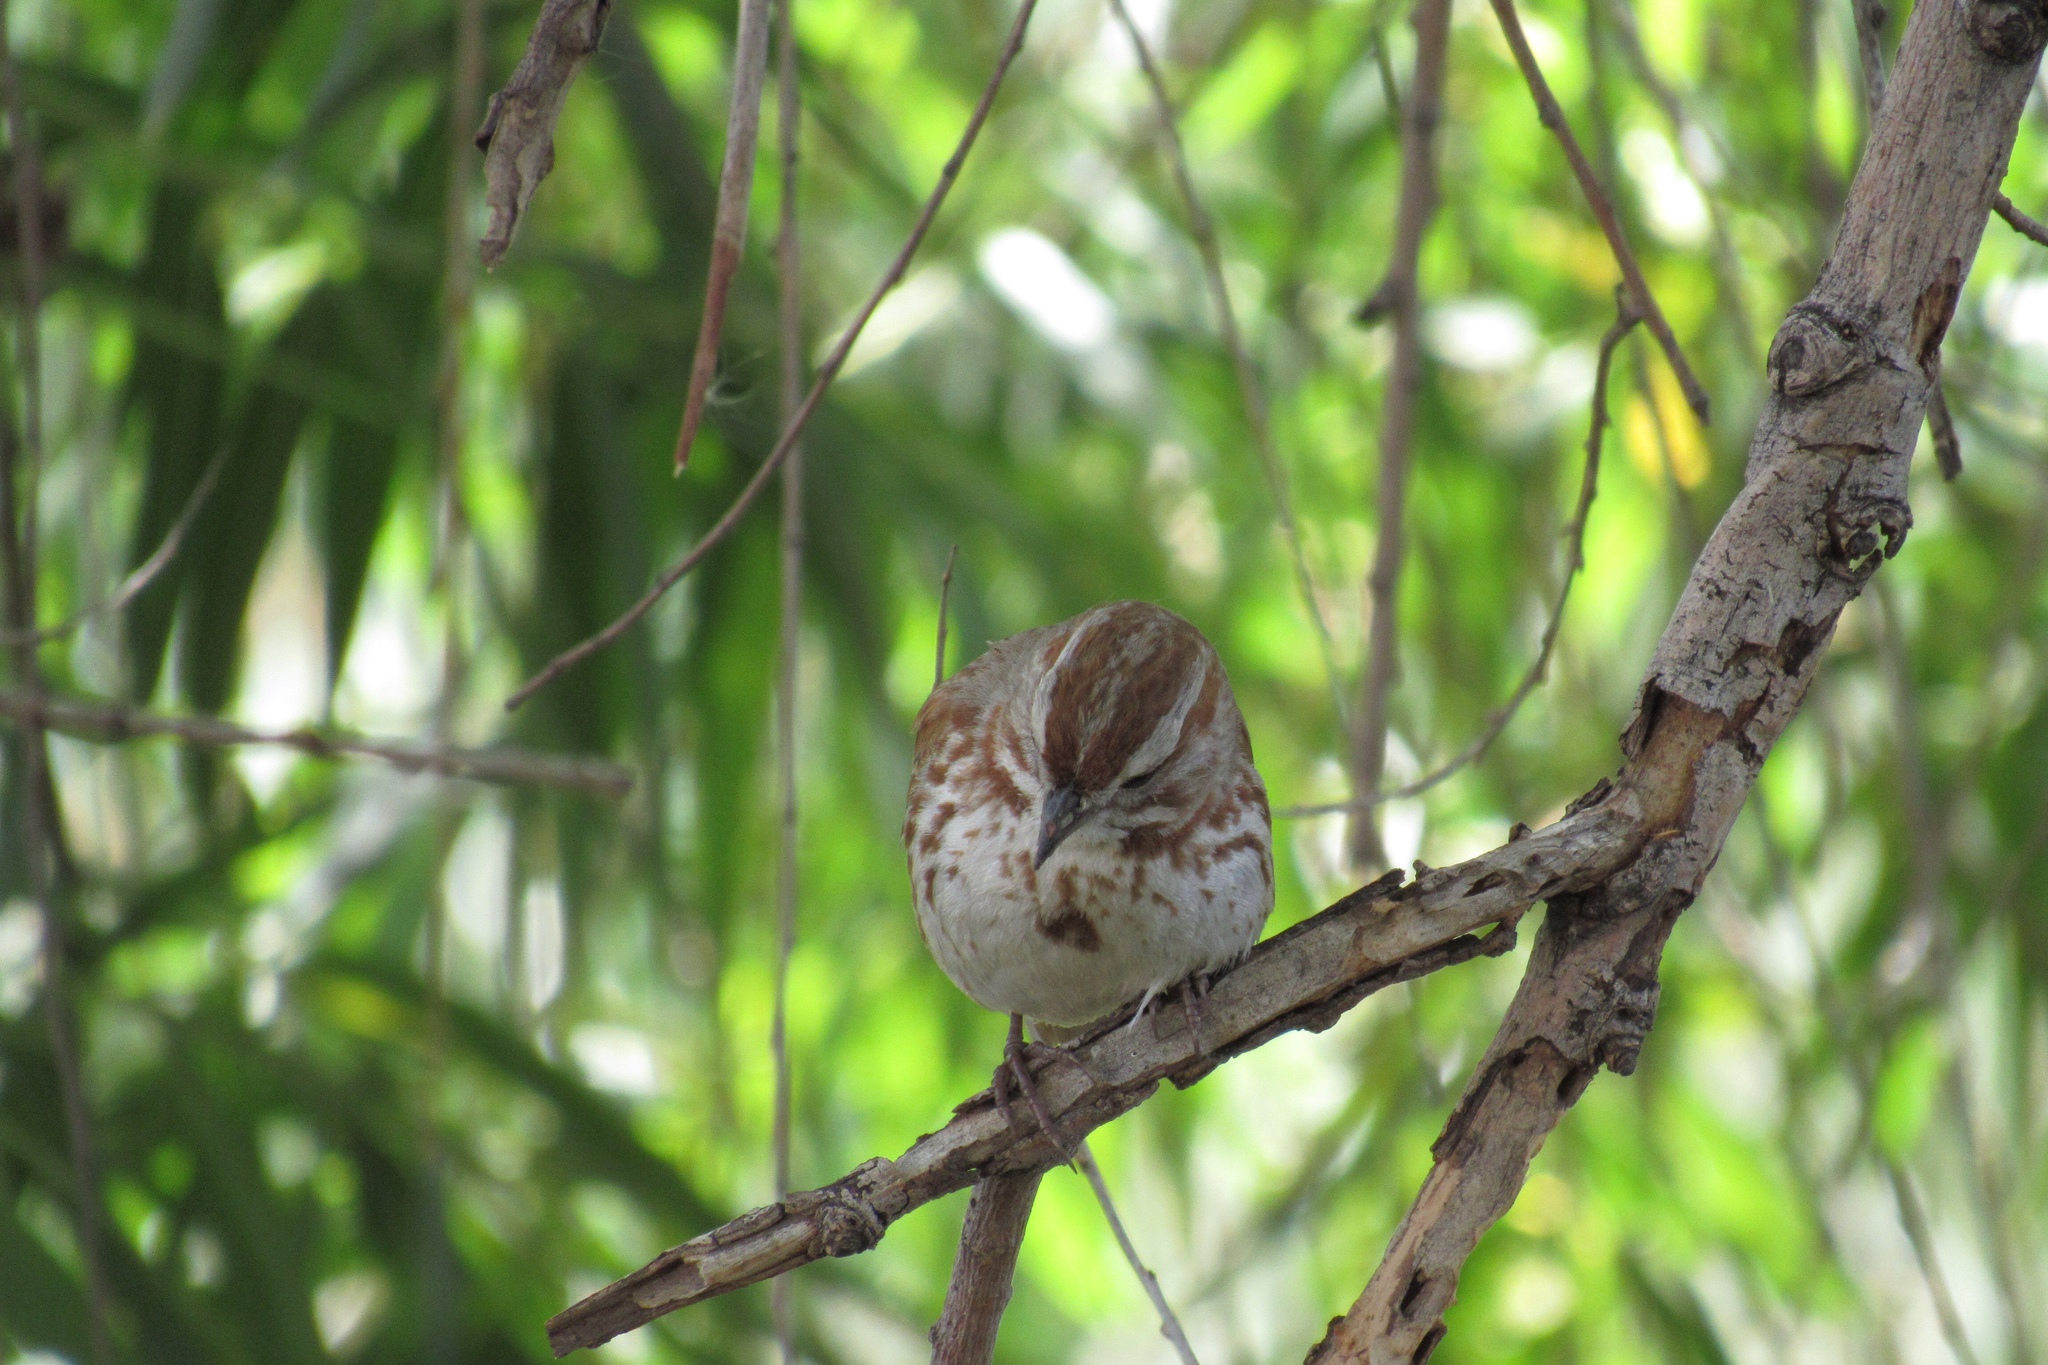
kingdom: Animalia
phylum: Chordata
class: Aves
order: Passeriformes
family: Passerellidae
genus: Melospiza
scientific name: Melospiza melodia
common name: Song sparrow
